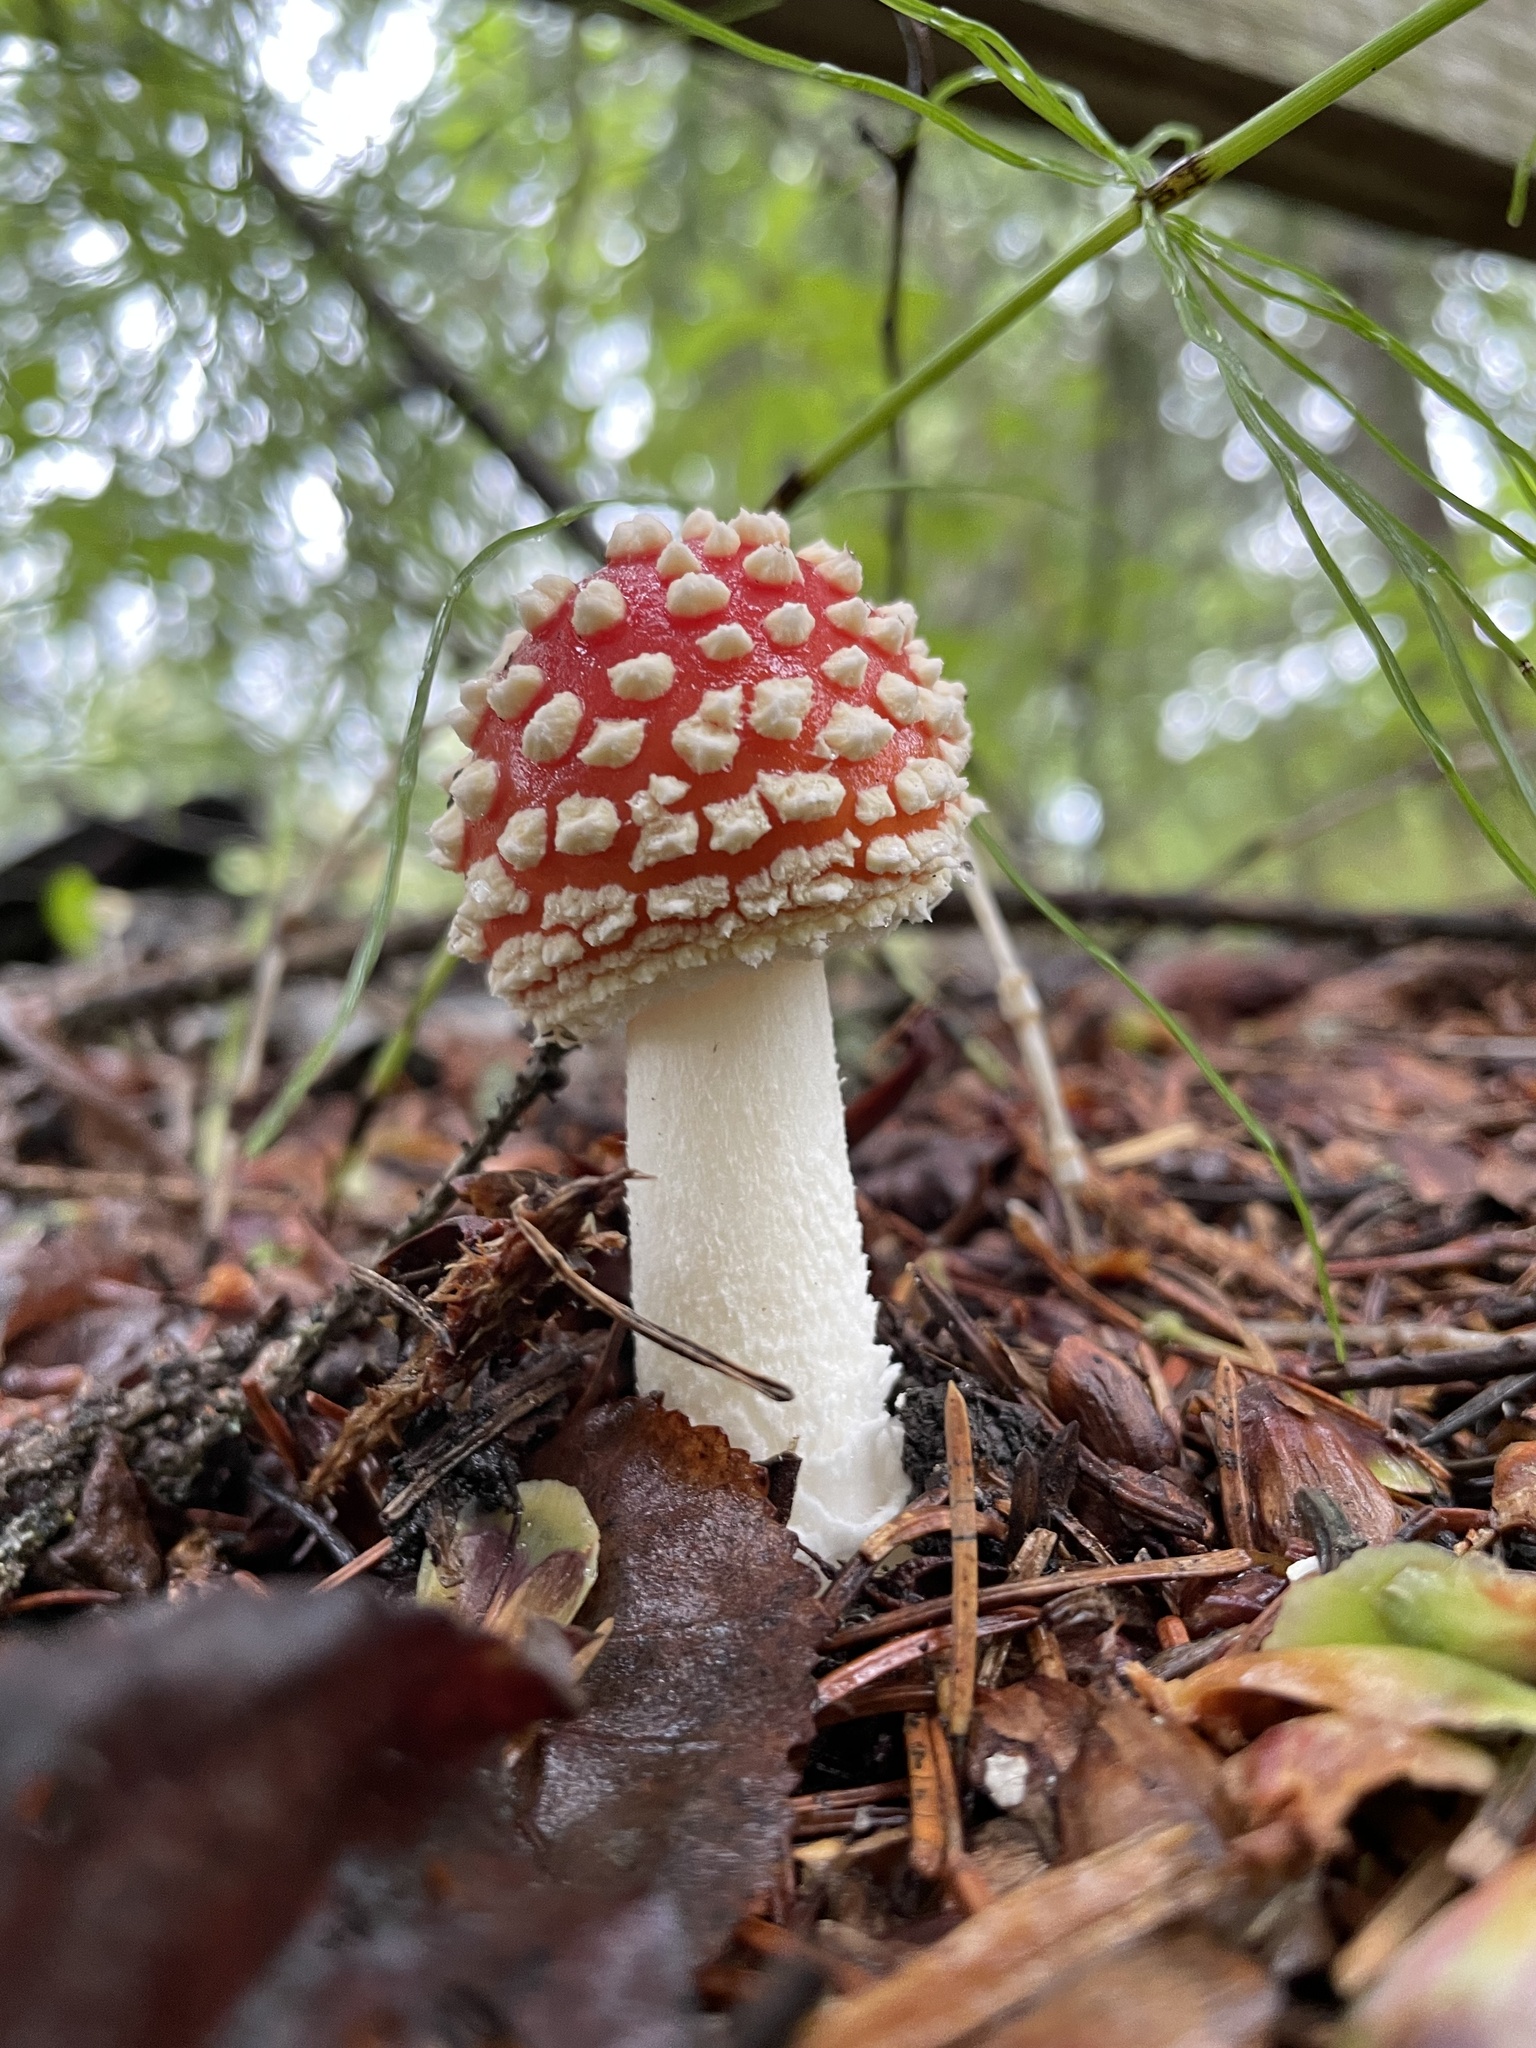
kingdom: Fungi
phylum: Basidiomycota
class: Agaricomycetes
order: Agaricales
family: Amanitaceae
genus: Amanita
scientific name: Amanita muscaria
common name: Fly agaric
